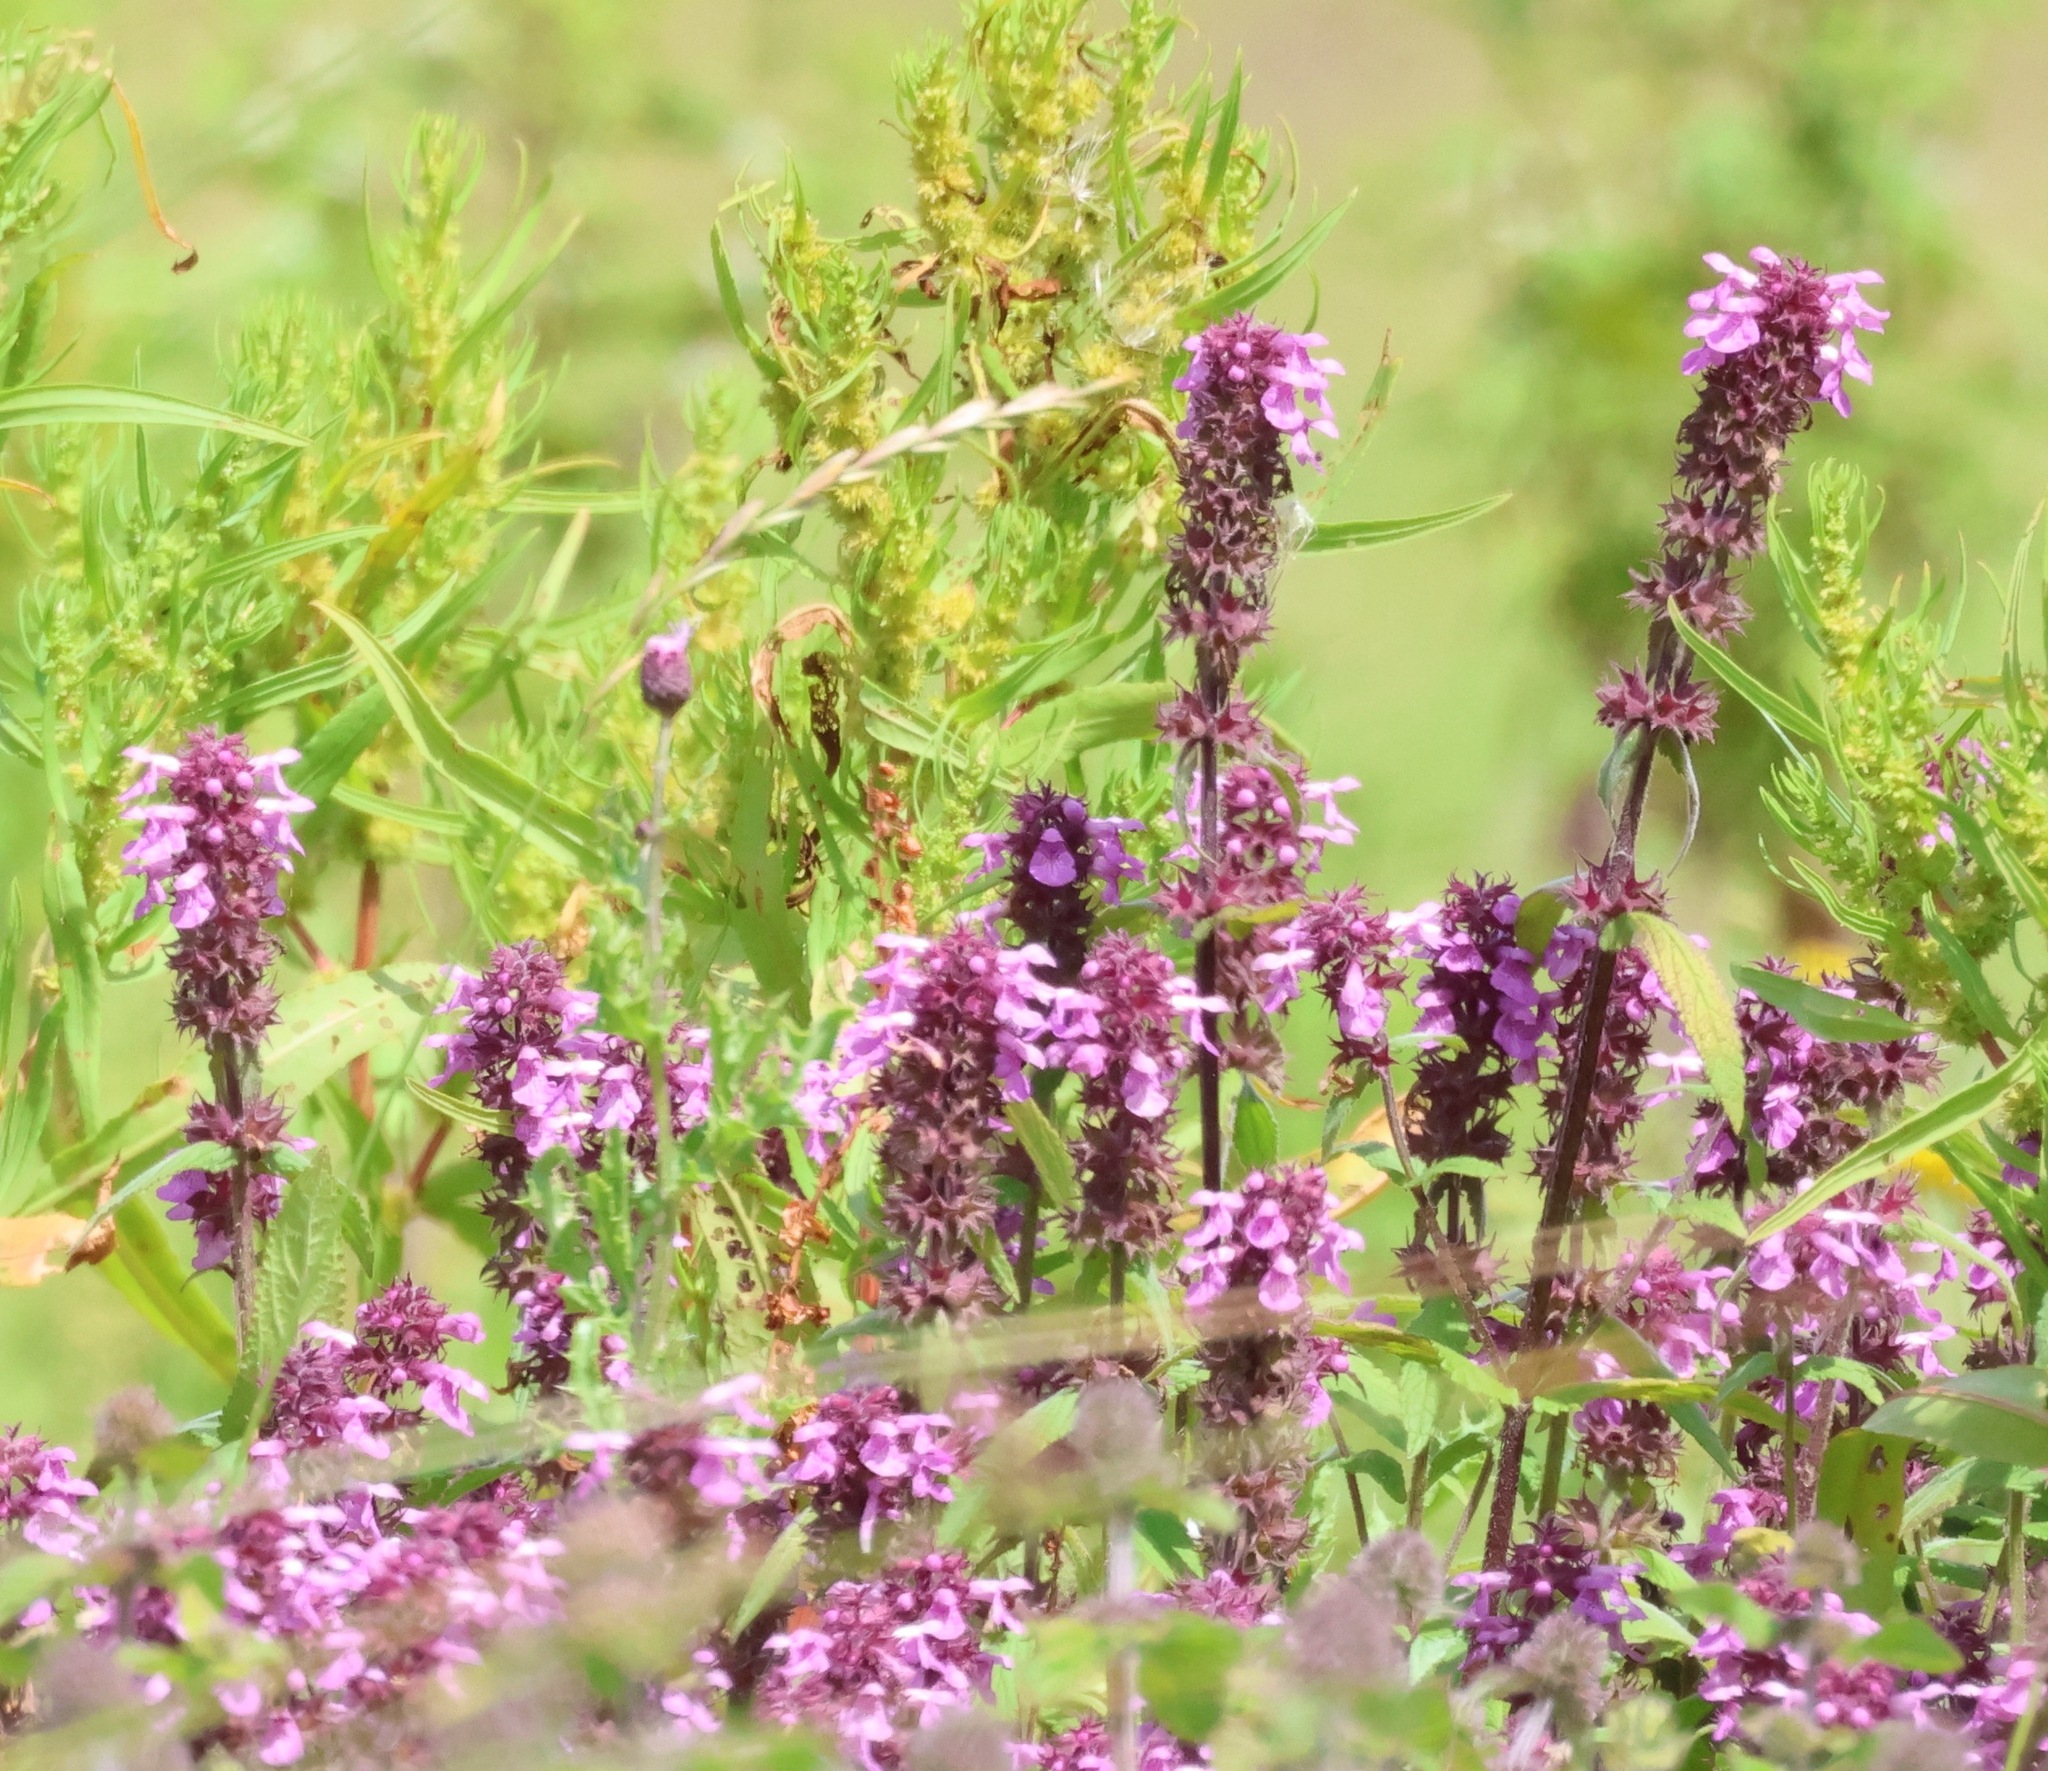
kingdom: Plantae
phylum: Tracheophyta
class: Magnoliopsida
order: Lamiales
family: Lamiaceae
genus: Stachys
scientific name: Stachys palustris
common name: Marsh woundwort
